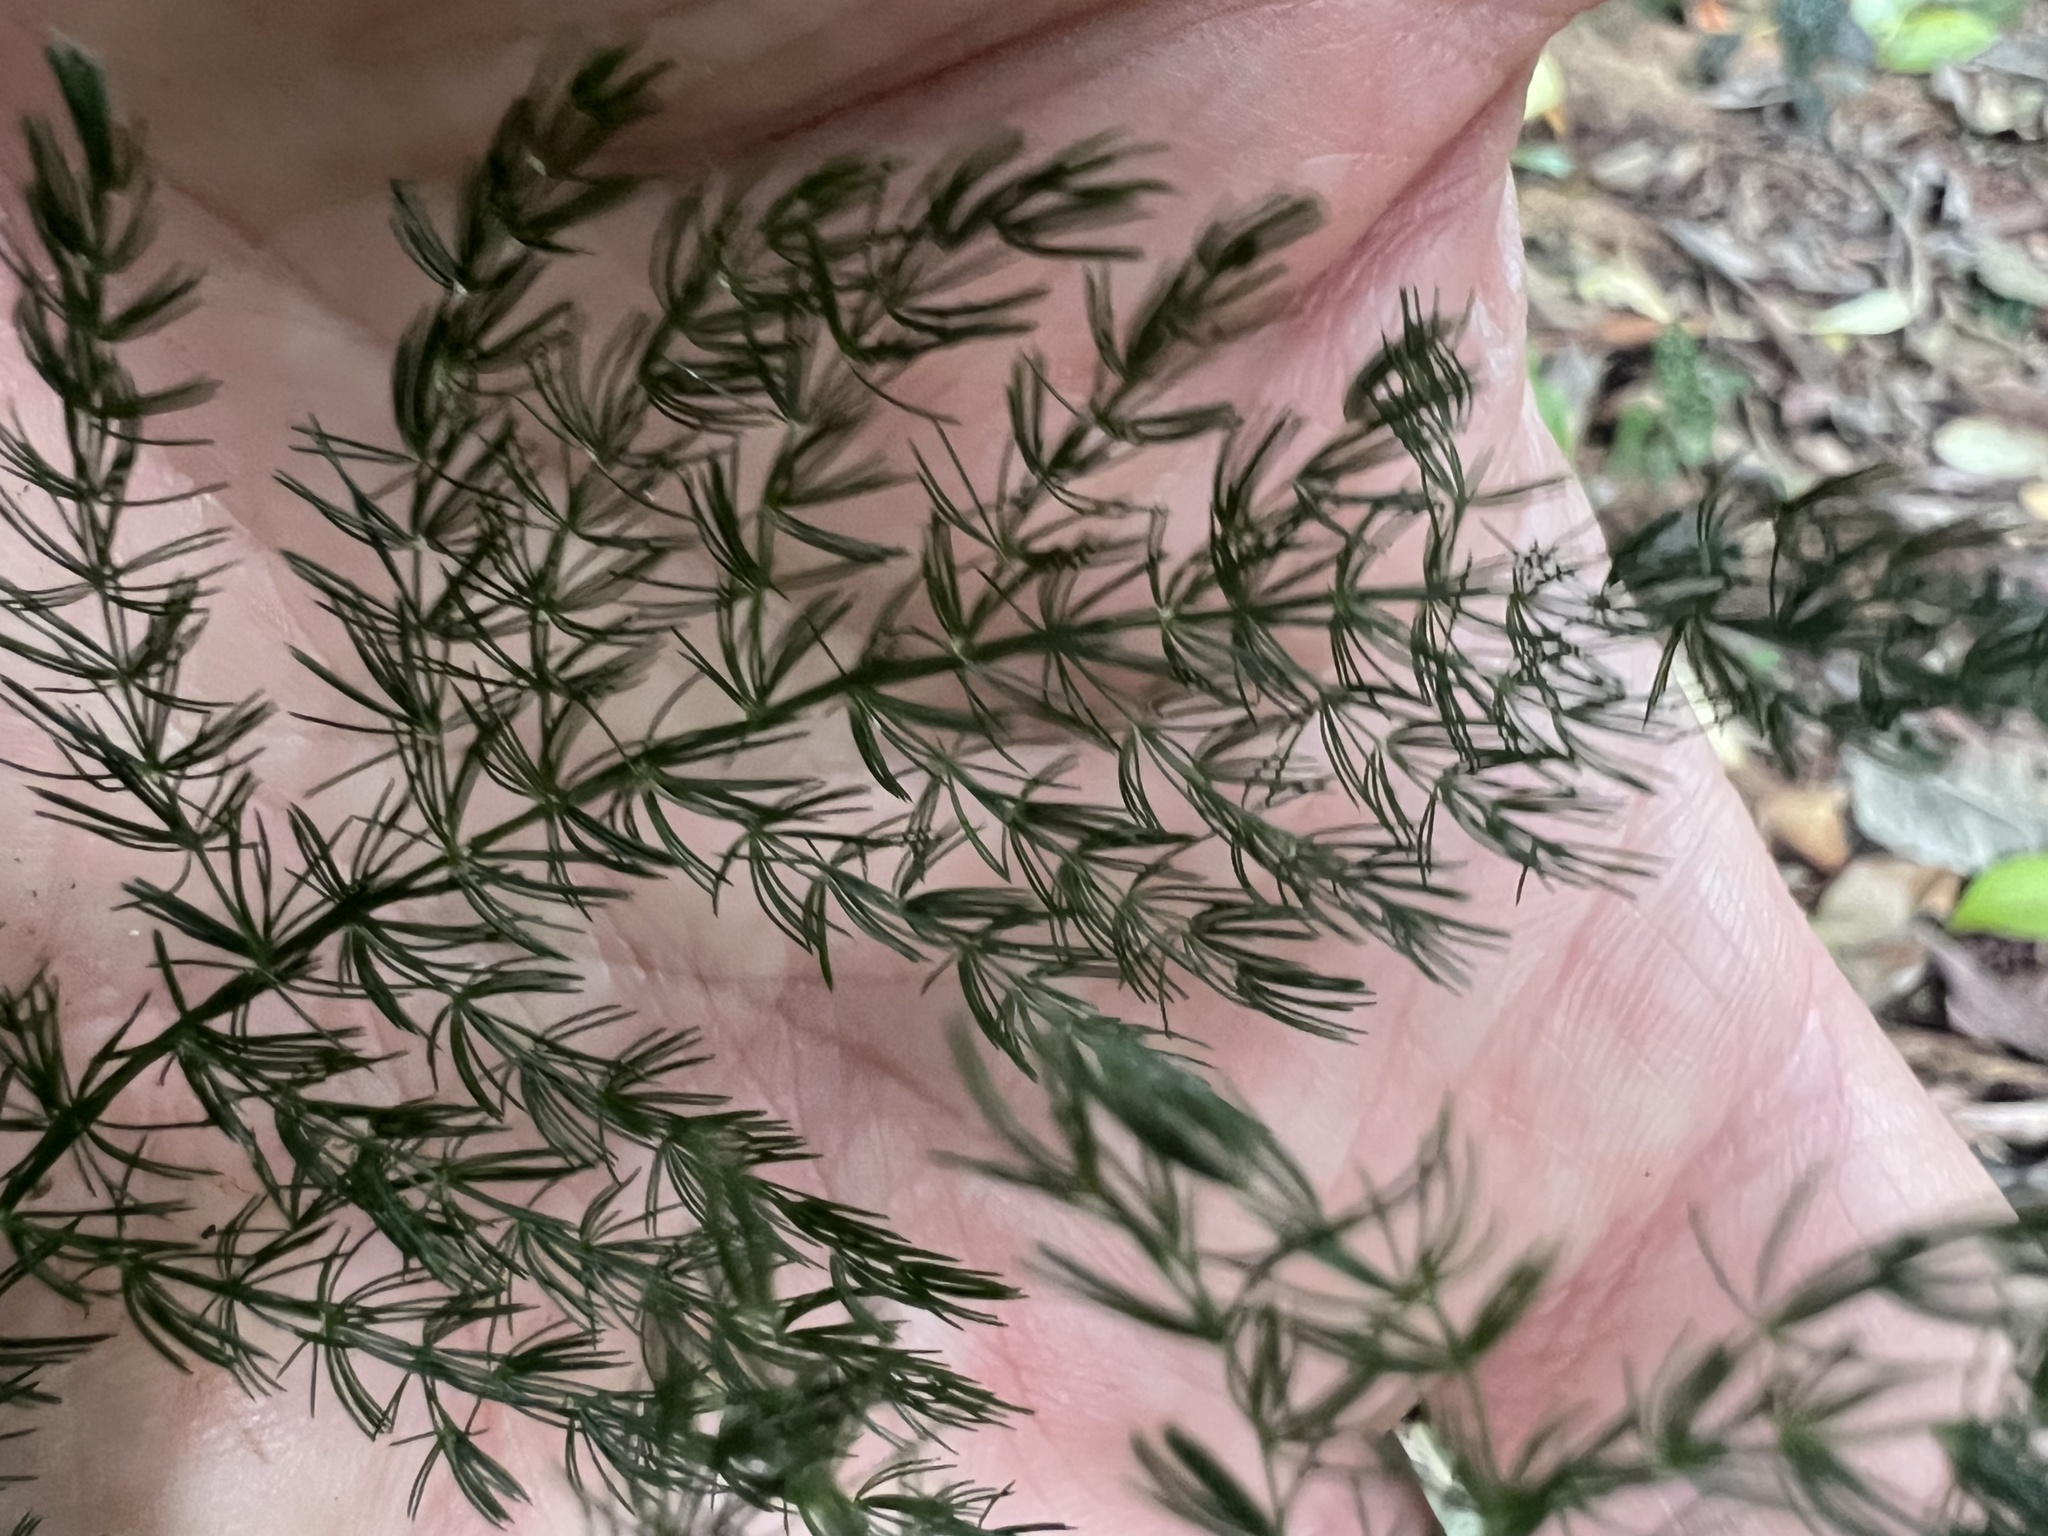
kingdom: Plantae
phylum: Tracheophyta
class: Liliopsida
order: Asparagales
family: Asparagaceae
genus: Asparagus
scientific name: Asparagus setaceus
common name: Common asparagus fern
